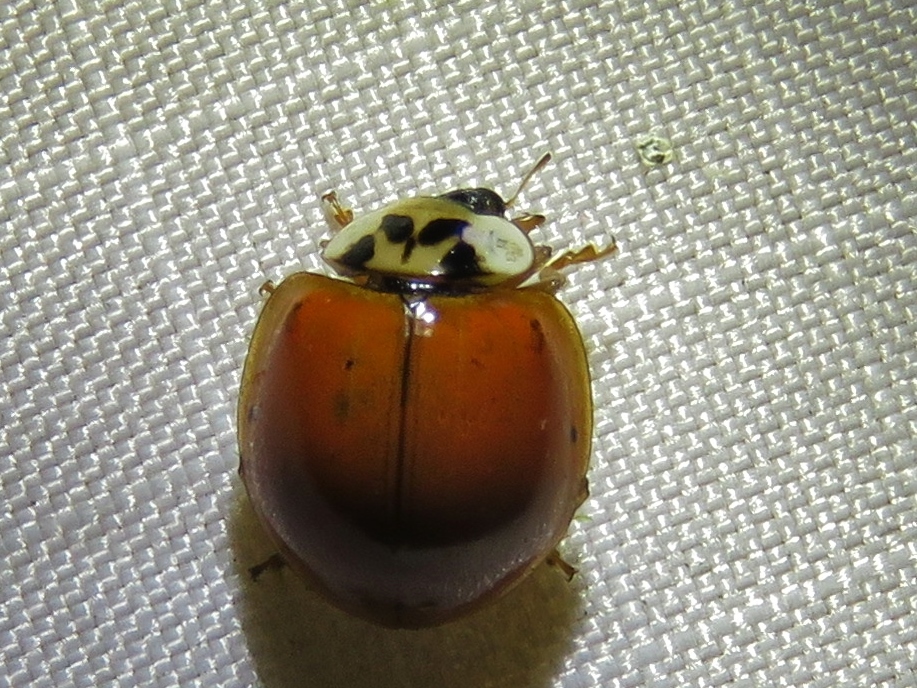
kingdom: Animalia
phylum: Arthropoda
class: Insecta
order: Coleoptera
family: Coccinellidae
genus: Harmonia
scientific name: Harmonia axyridis
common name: Harlequin ladybird
